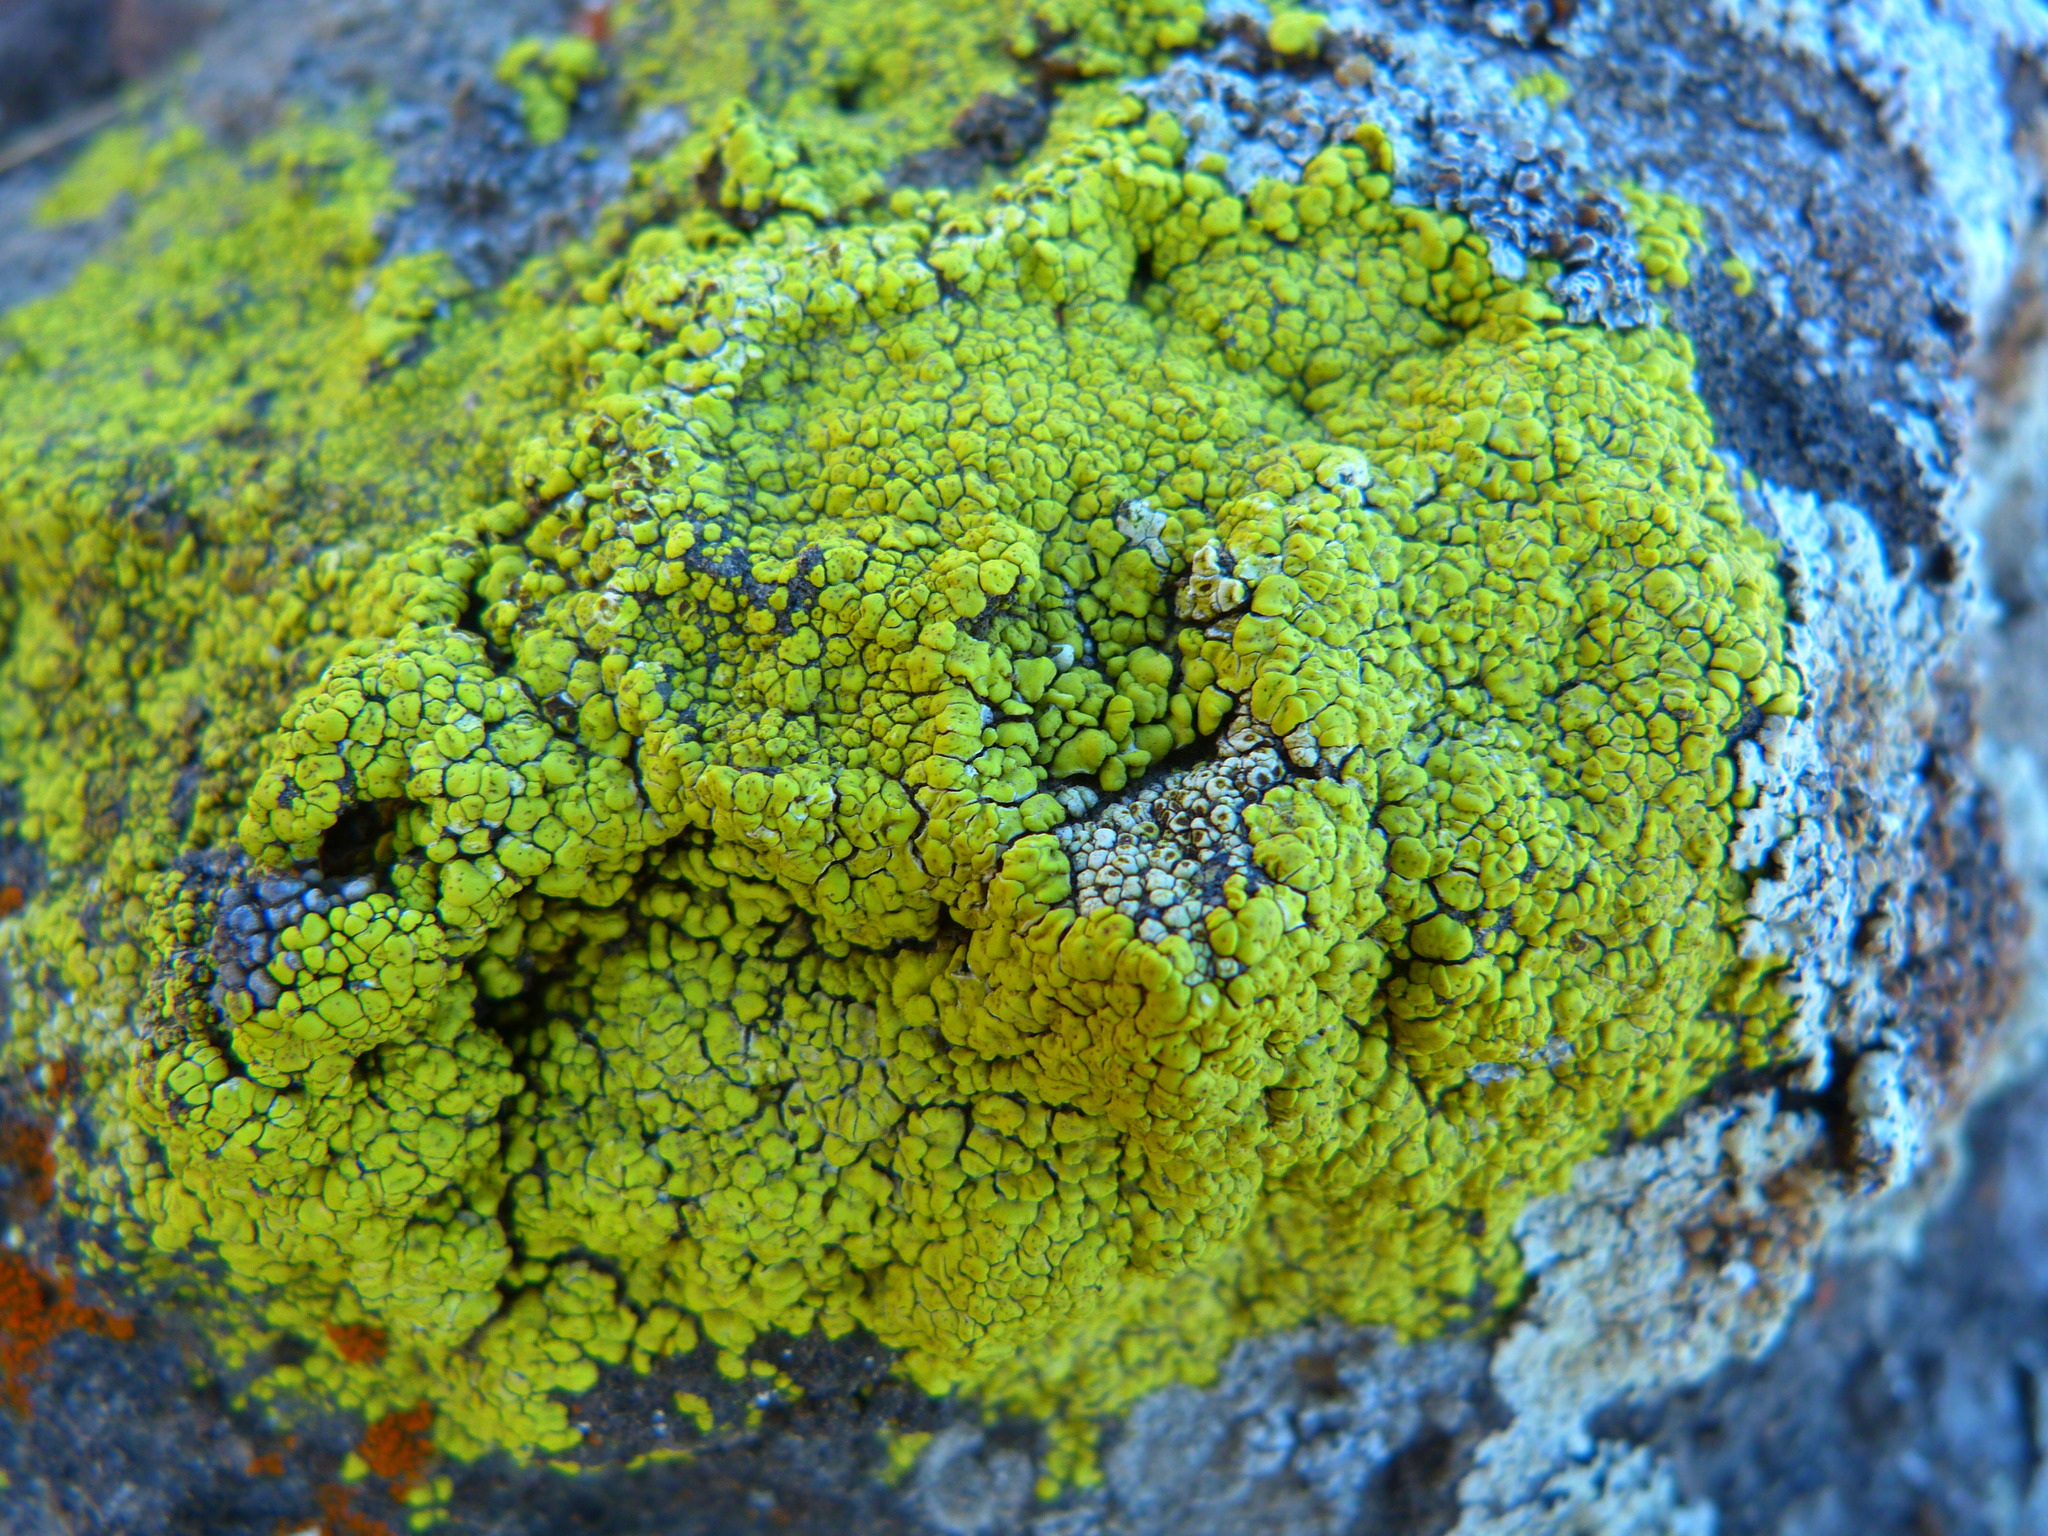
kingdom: Fungi
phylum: Ascomycota
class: Lecanoromycetes
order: Acarosporales
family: Acarosporaceae
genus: Acarospora
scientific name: Acarospora socialis
